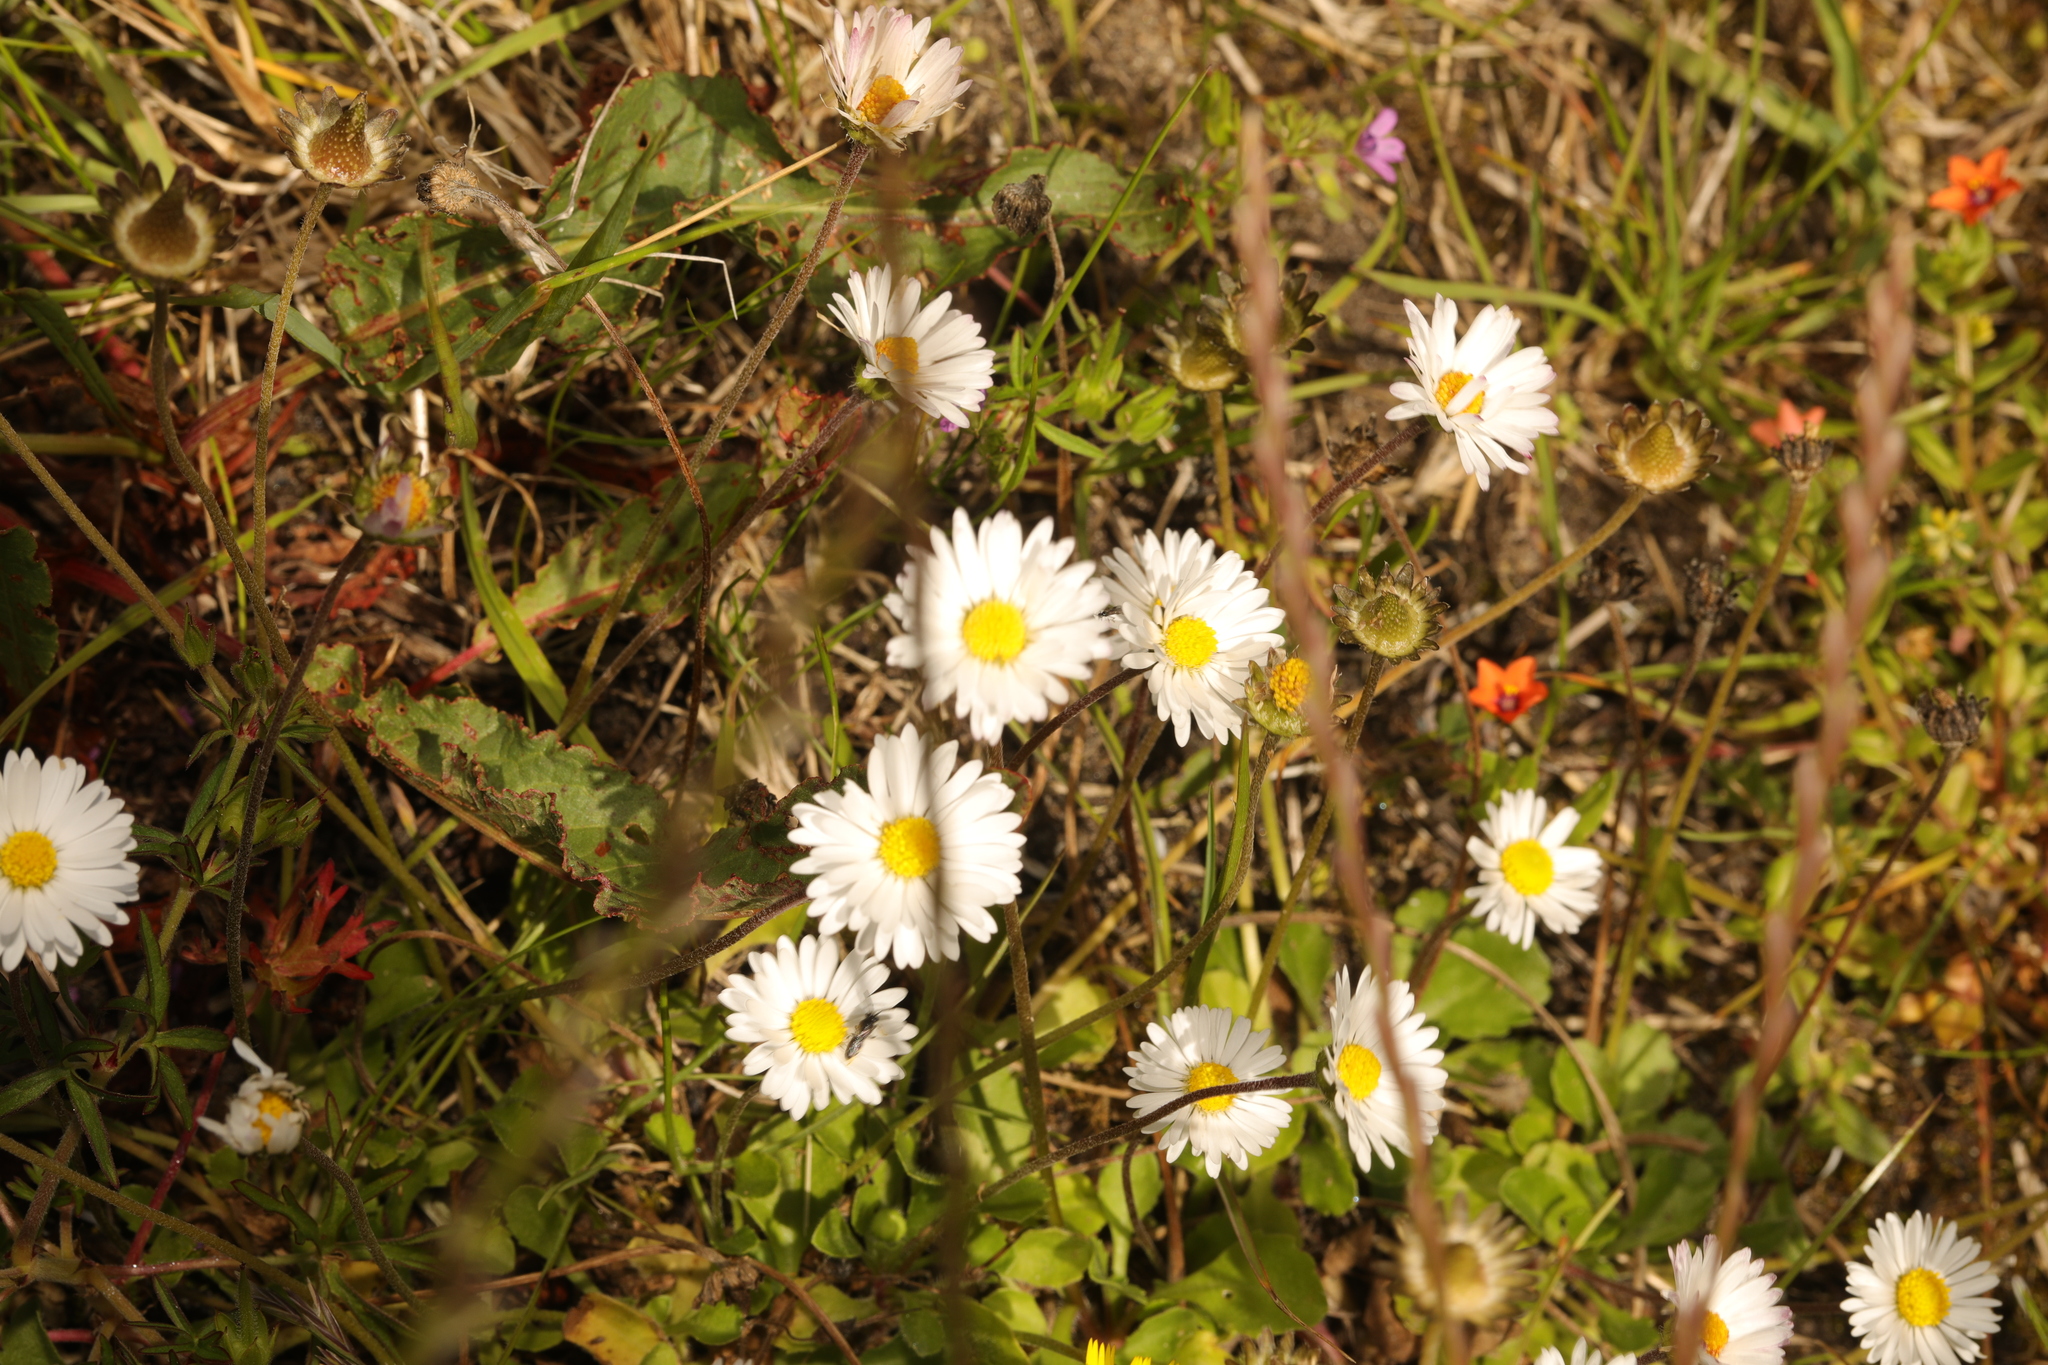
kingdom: Plantae
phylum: Tracheophyta
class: Magnoliopsida
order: Asterales
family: Asteraceae
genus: Bellis
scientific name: Bellis perennis
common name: Lawndaisy
